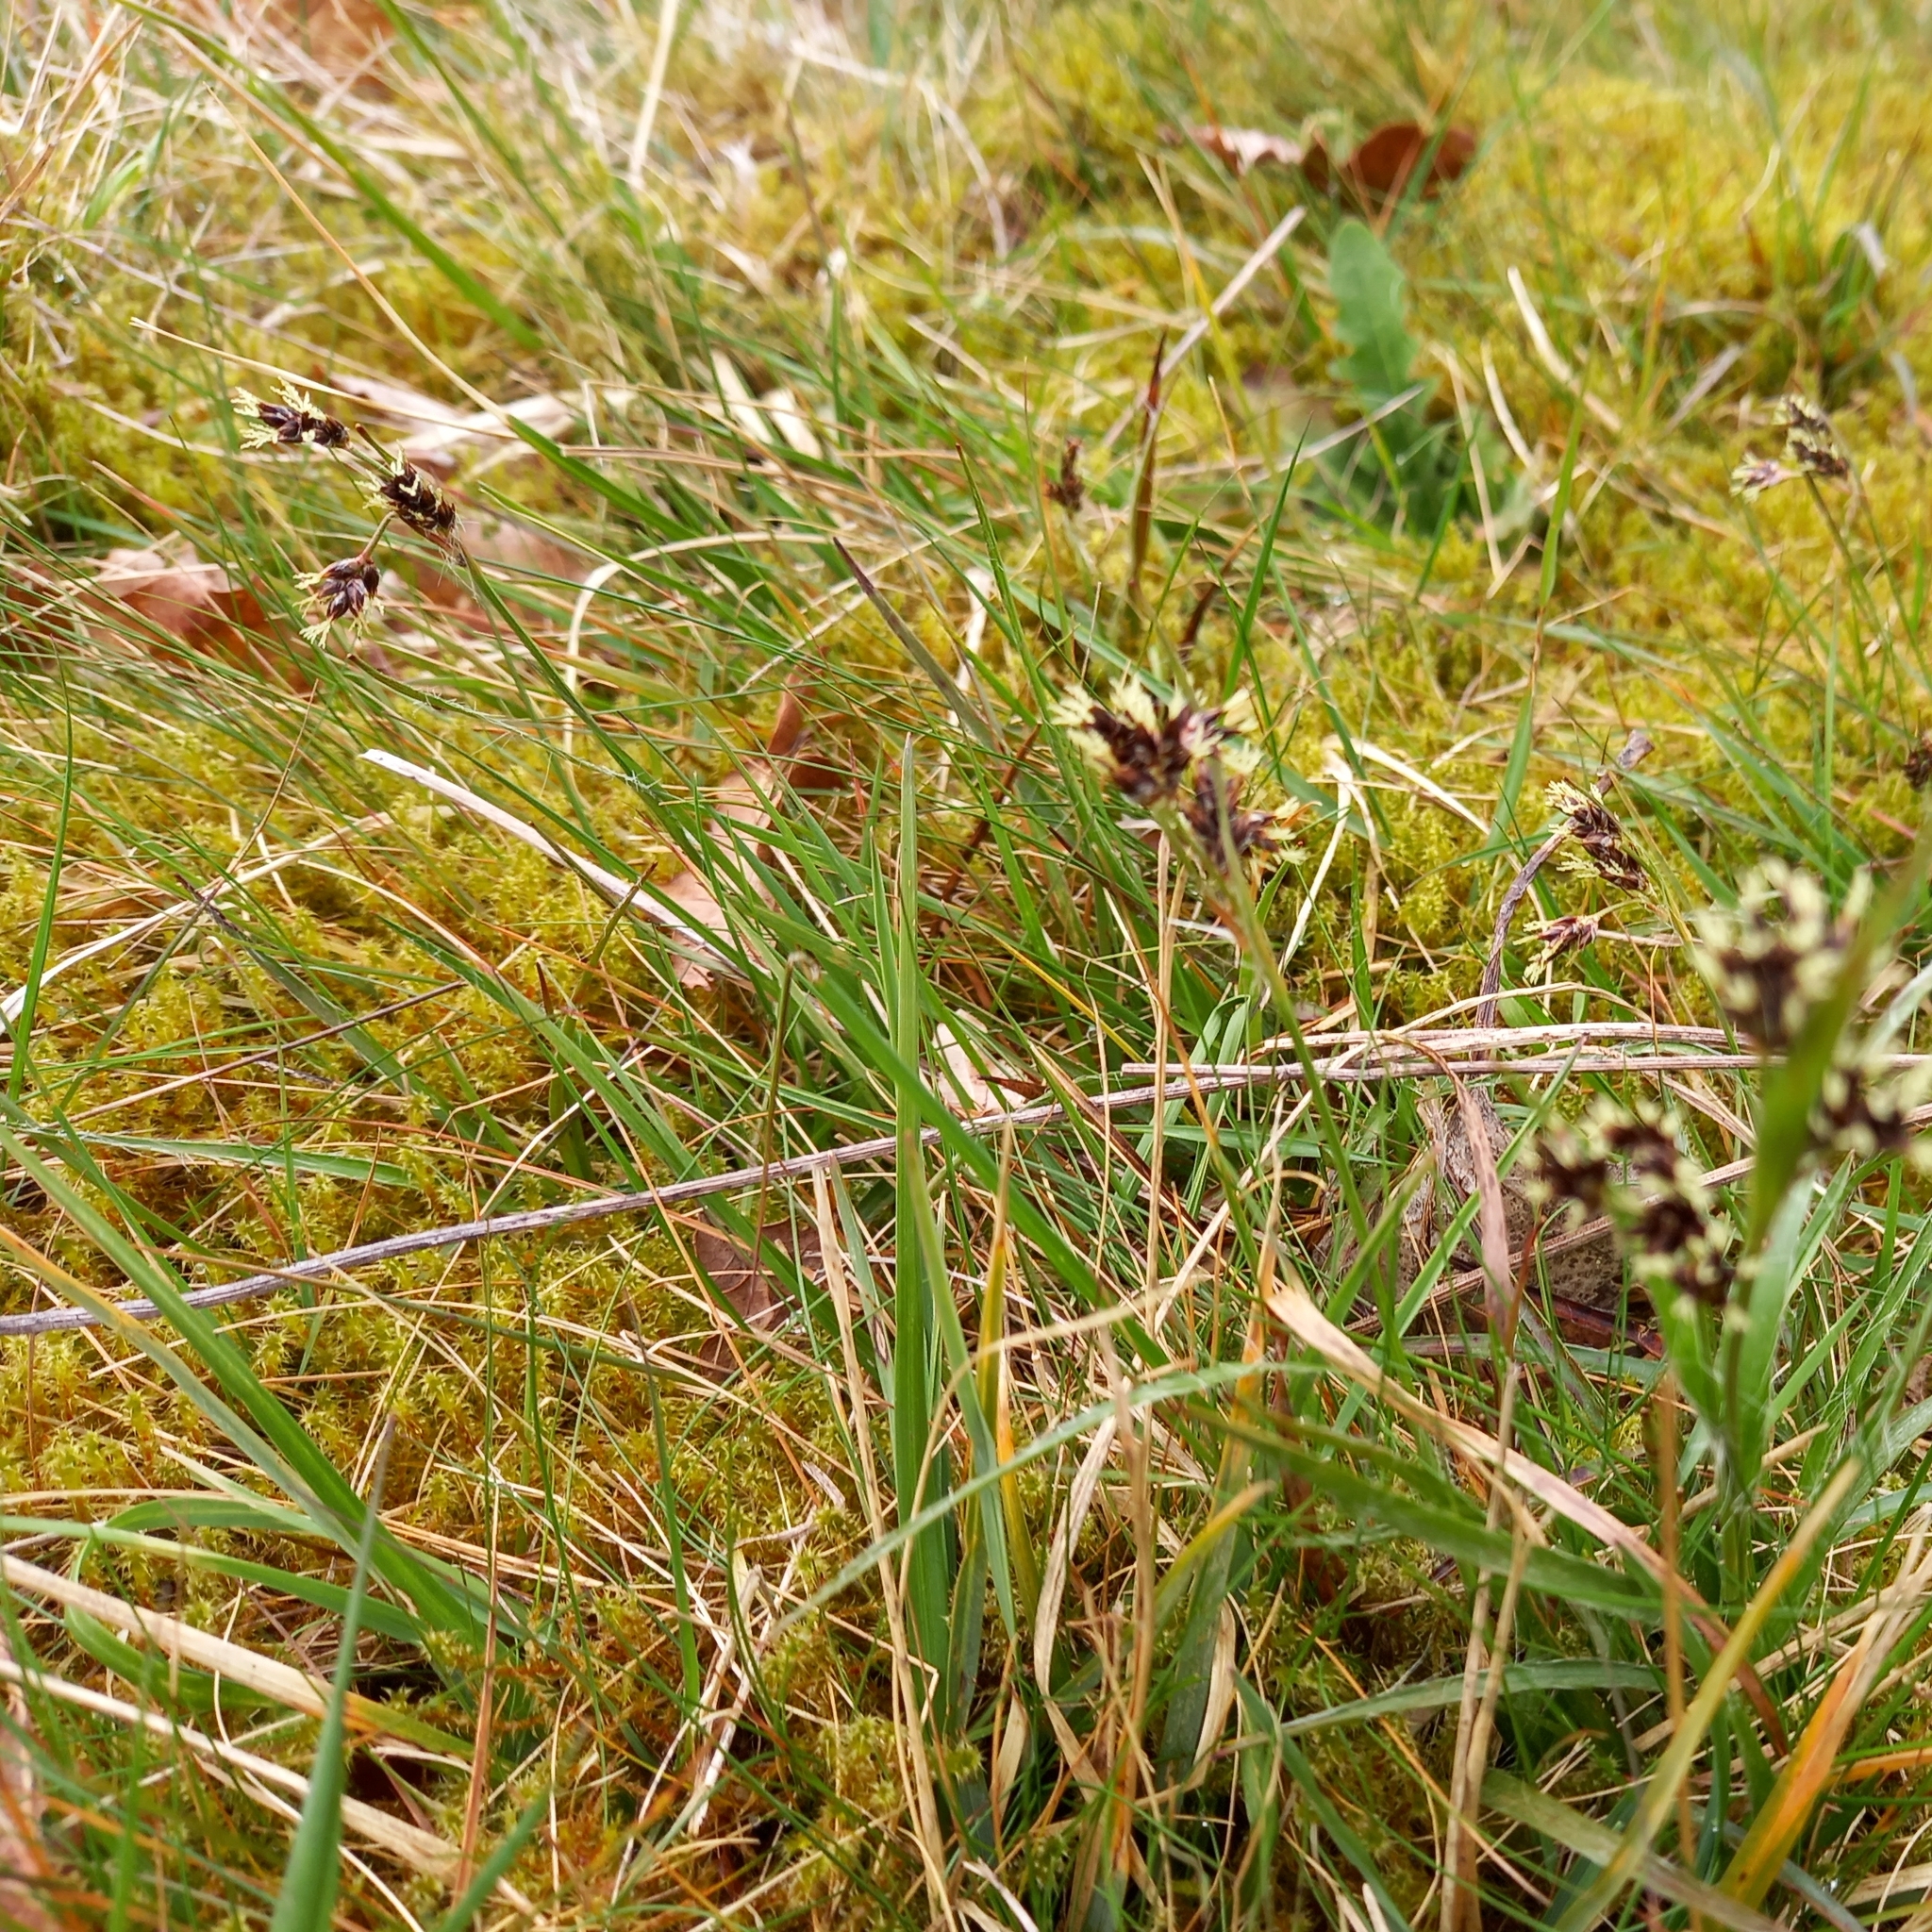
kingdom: Plantae
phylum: Tracheophyta
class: Liliopsida
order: Poales
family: Juncaceae
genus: Luzula
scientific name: Luzula campestris
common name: Field wood-rush
